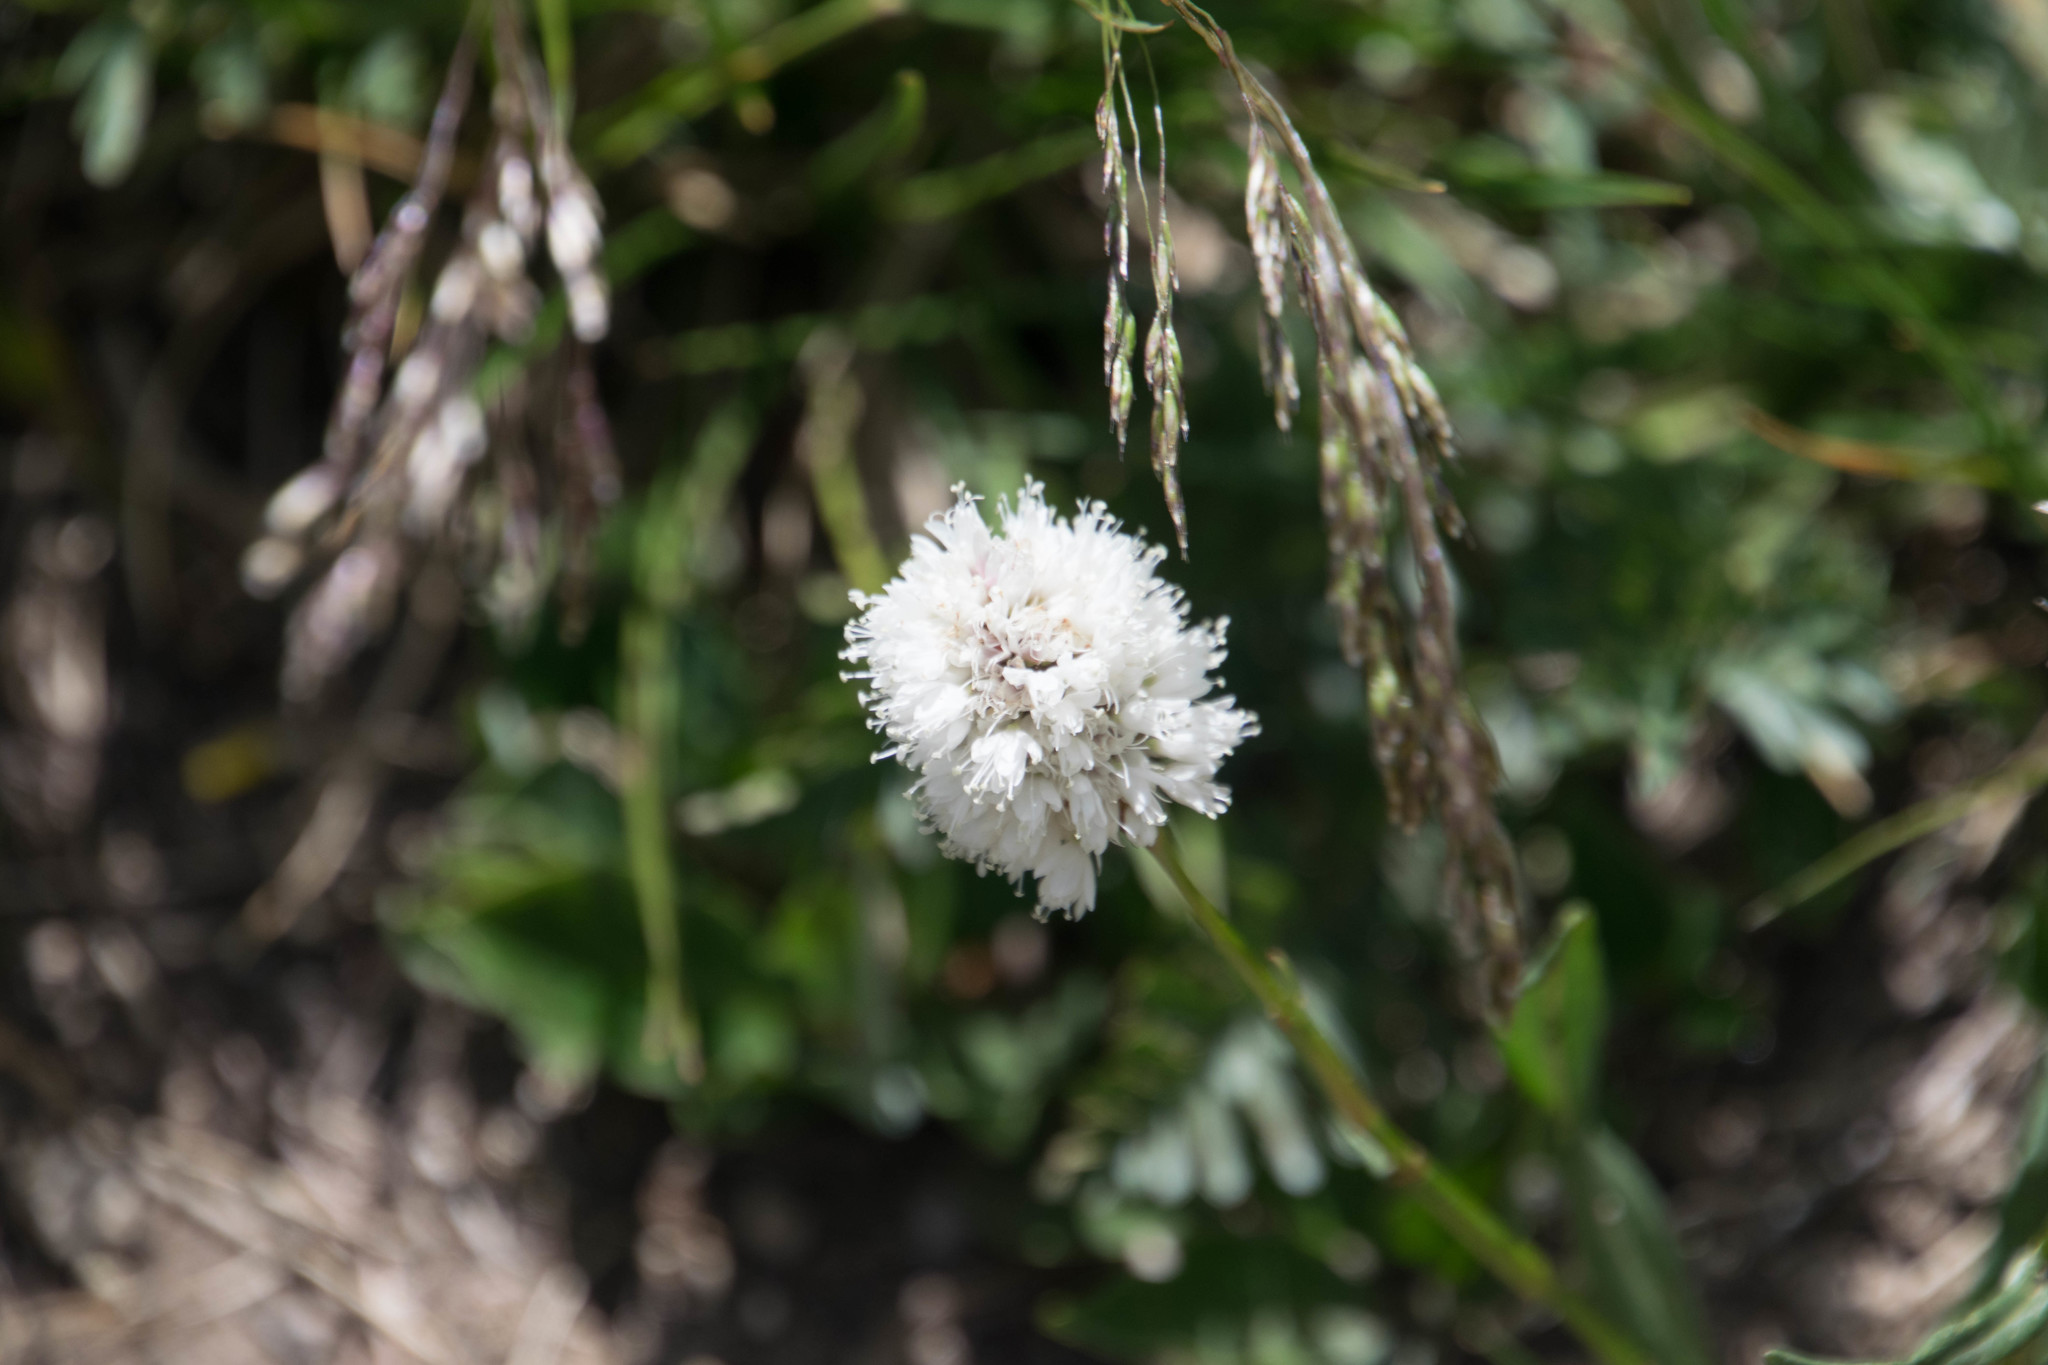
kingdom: Plantae
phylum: Tracheophyta
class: Magnoliopsida
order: Caryophyllales
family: Polygonaceae
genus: Bistorta
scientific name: Bistorta bistortoides
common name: American bistort
